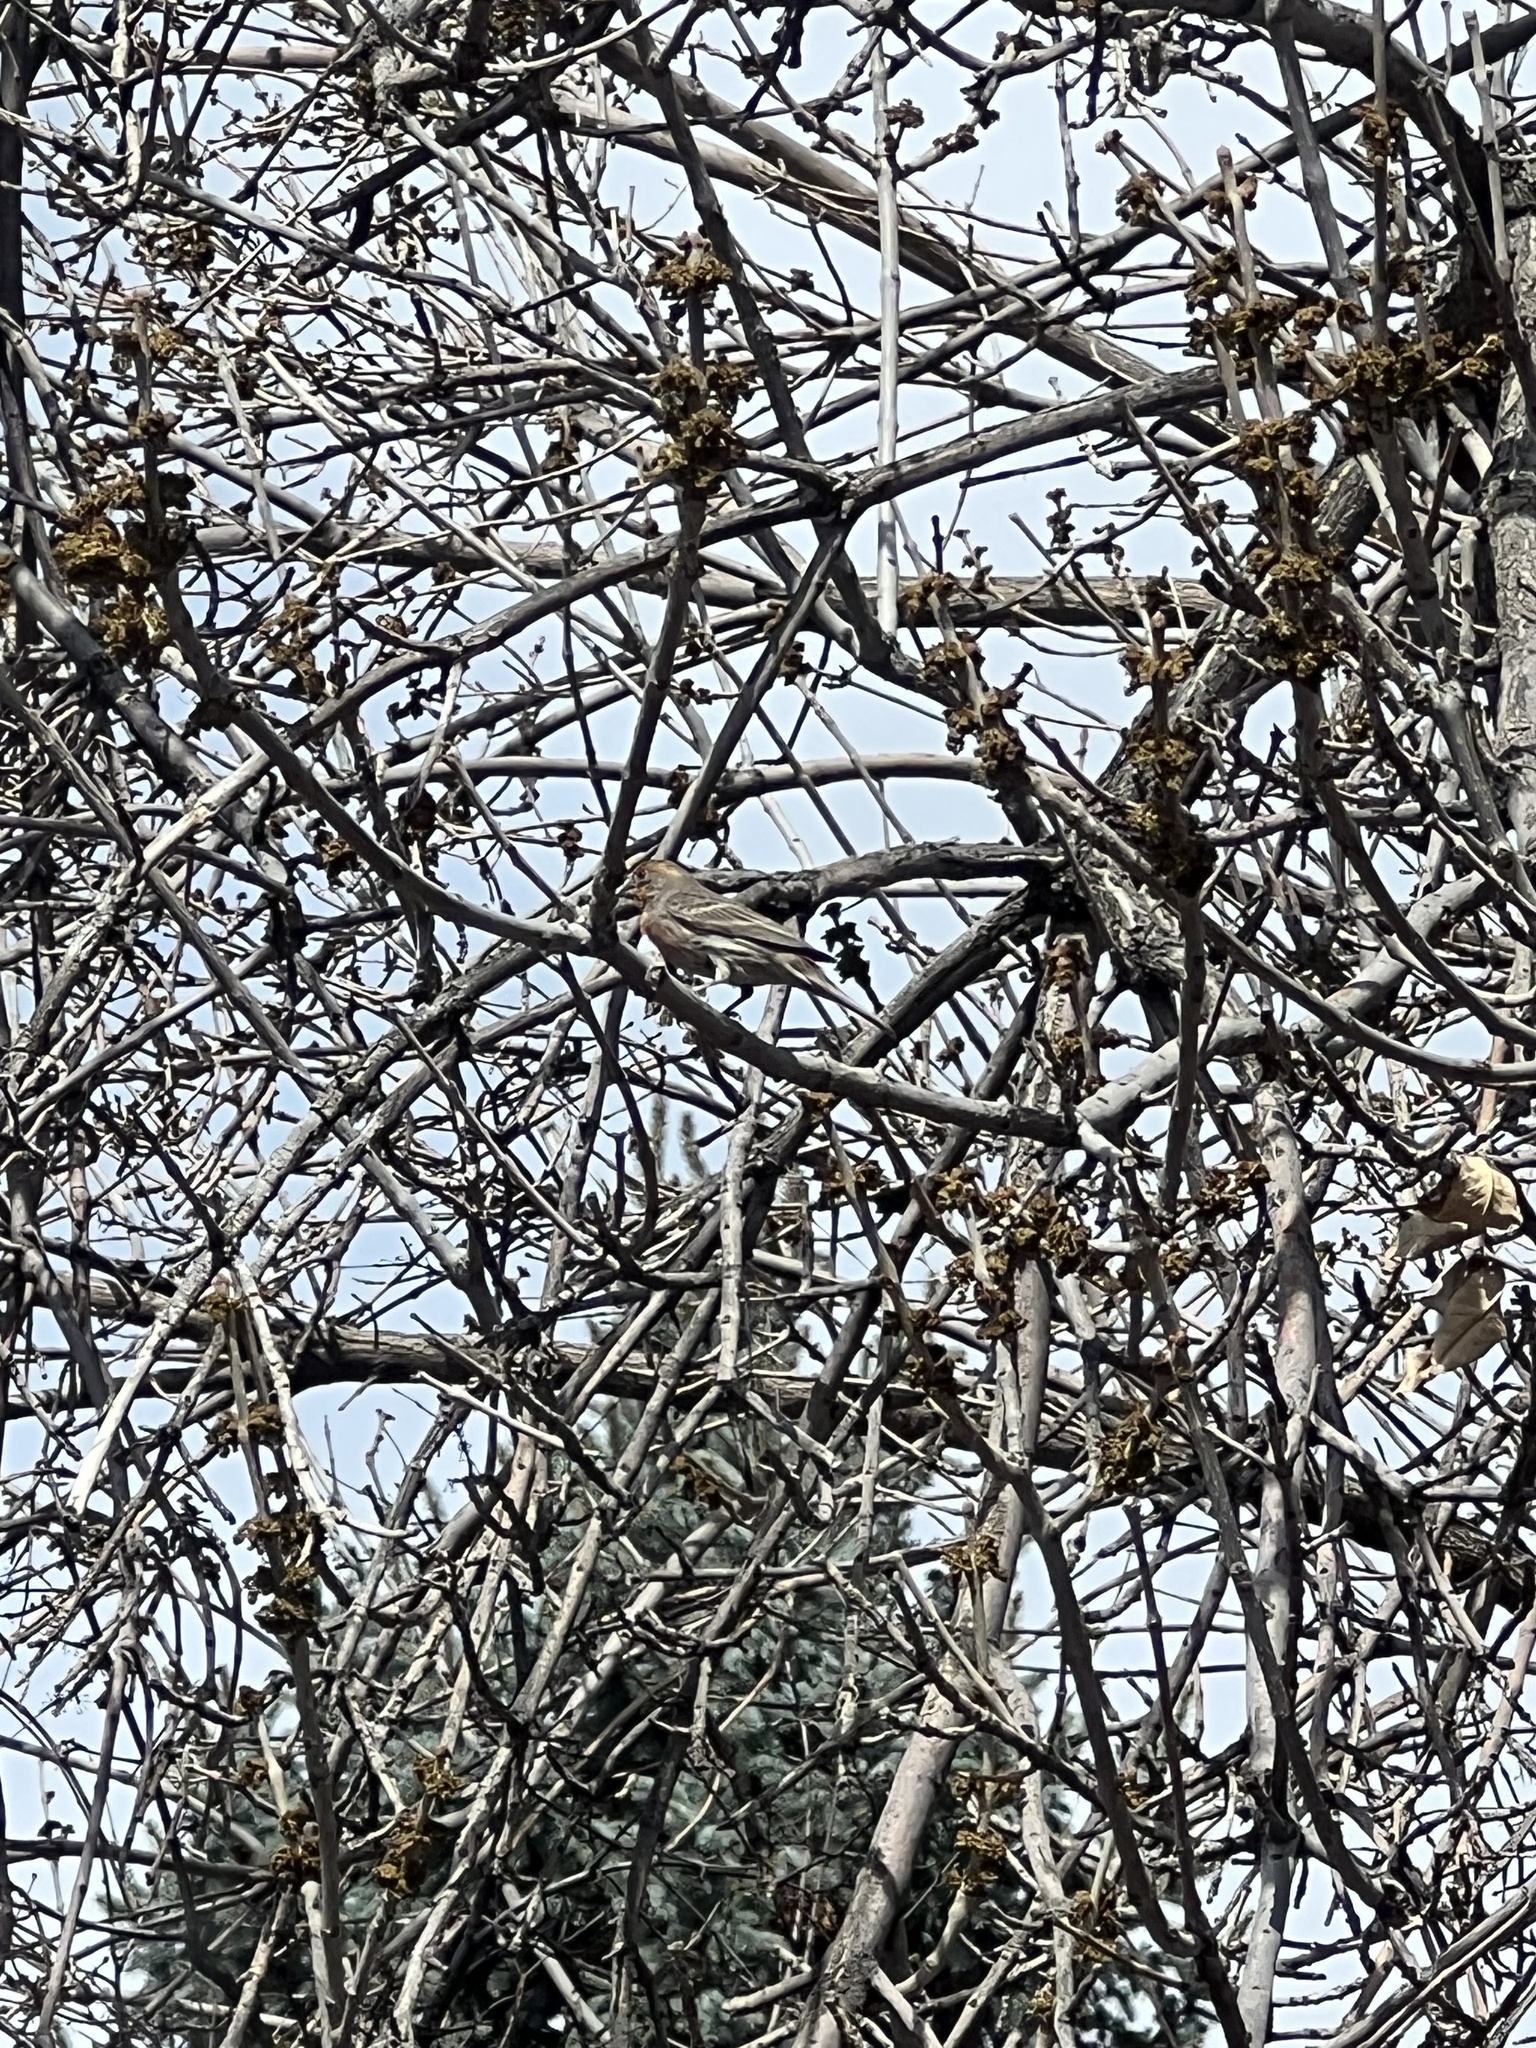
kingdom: Animalia
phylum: Chordata
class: Aves
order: Passeriformes
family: Fringillidae
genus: Haemorhous
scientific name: Haemorhous mexicanus
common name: House finch
